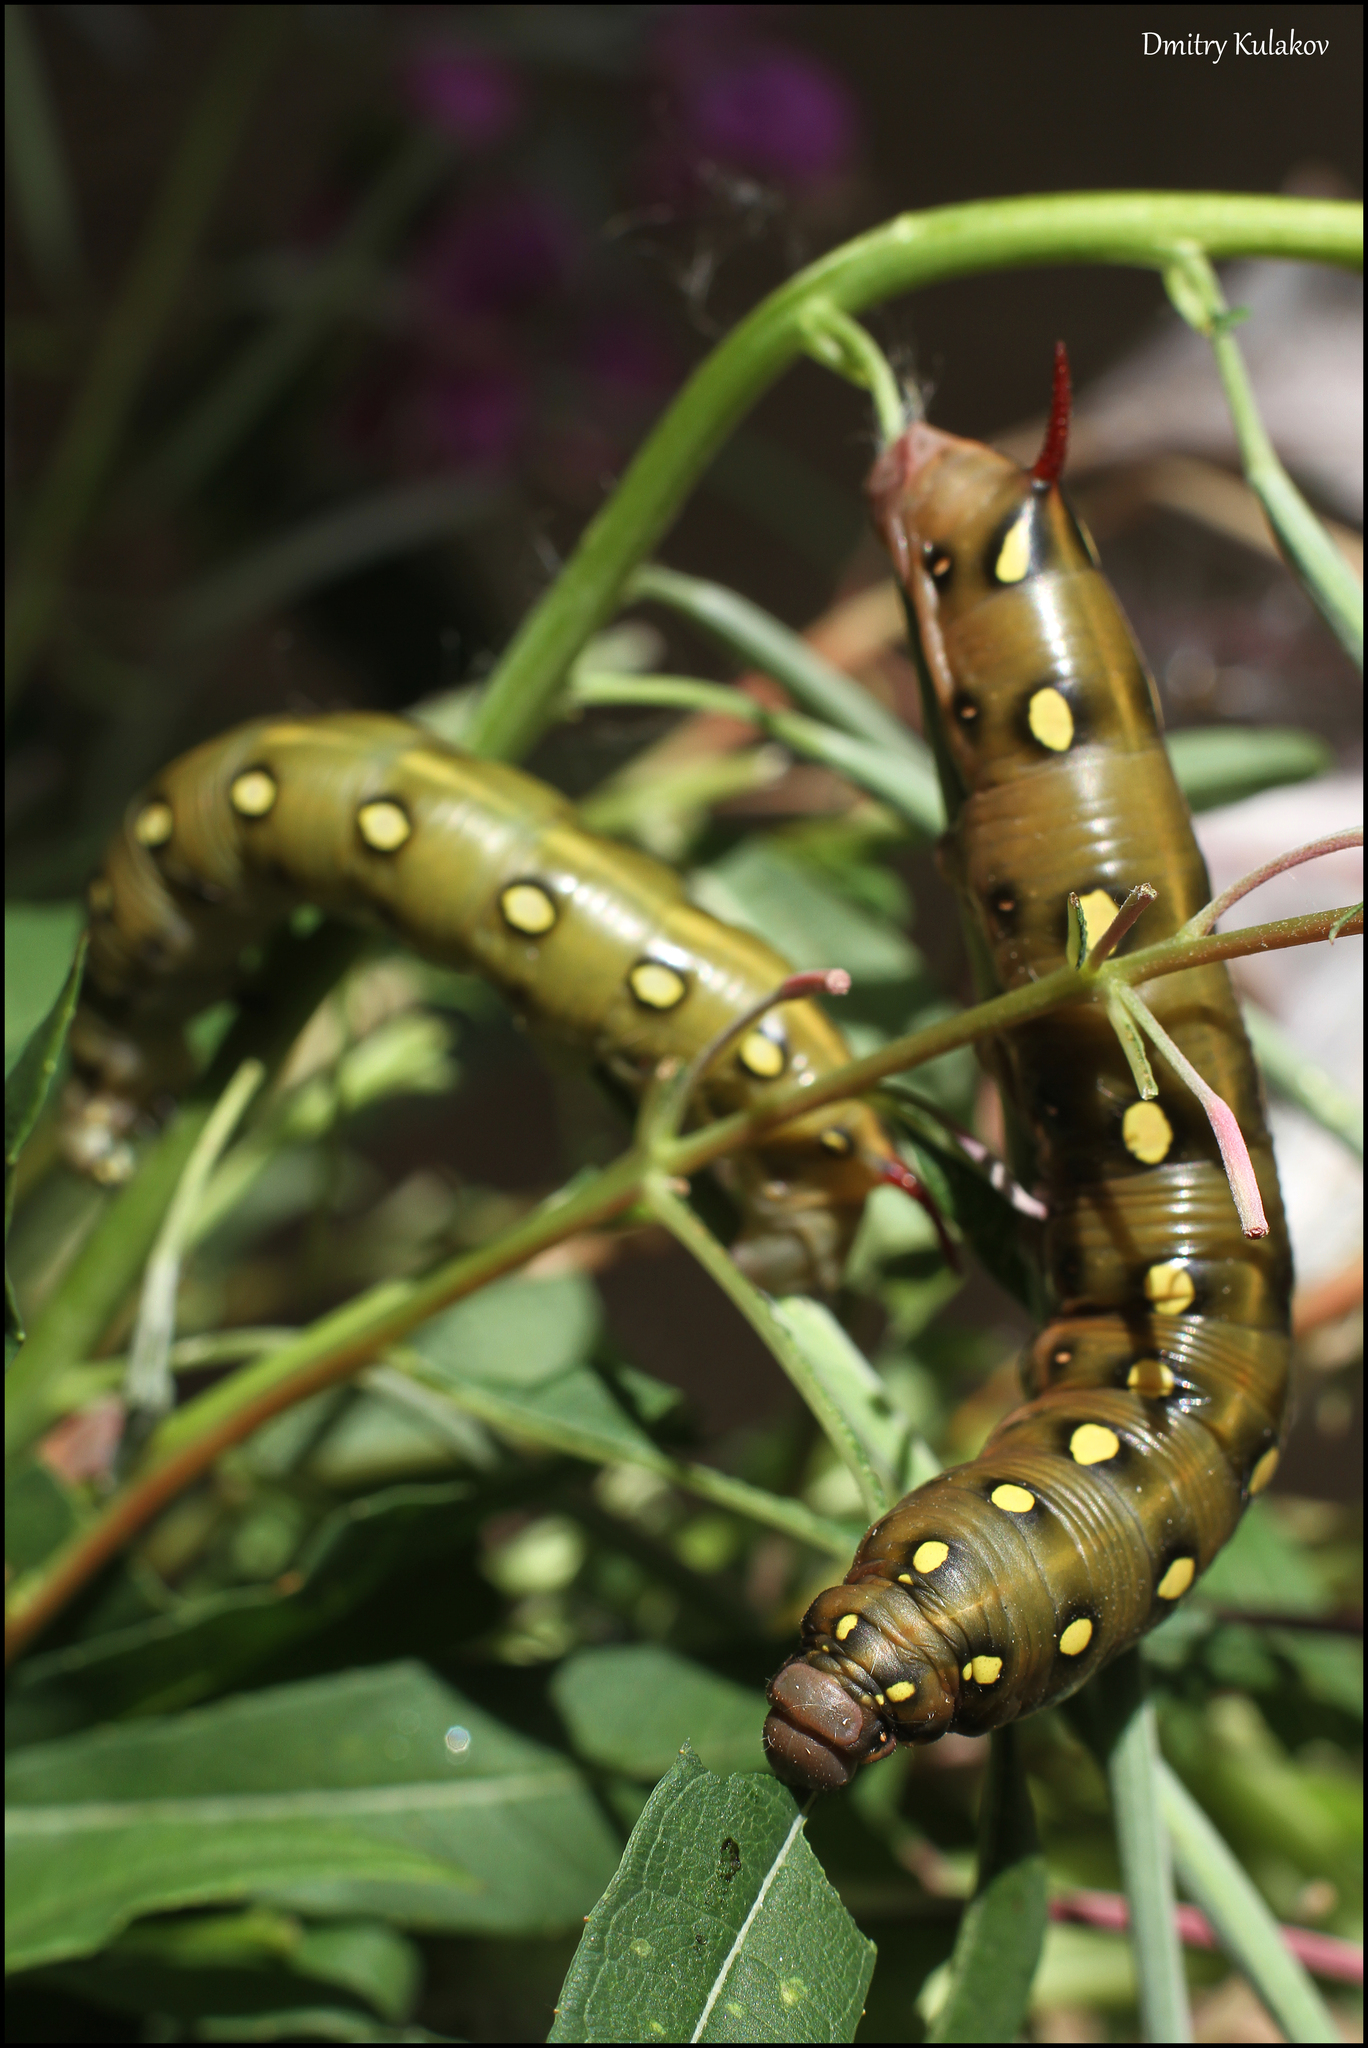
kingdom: Animalia
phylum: Arthropoda
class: Insecta
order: Lepidoptera
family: Sphingidae
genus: Hyles
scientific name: Hyles gallii
